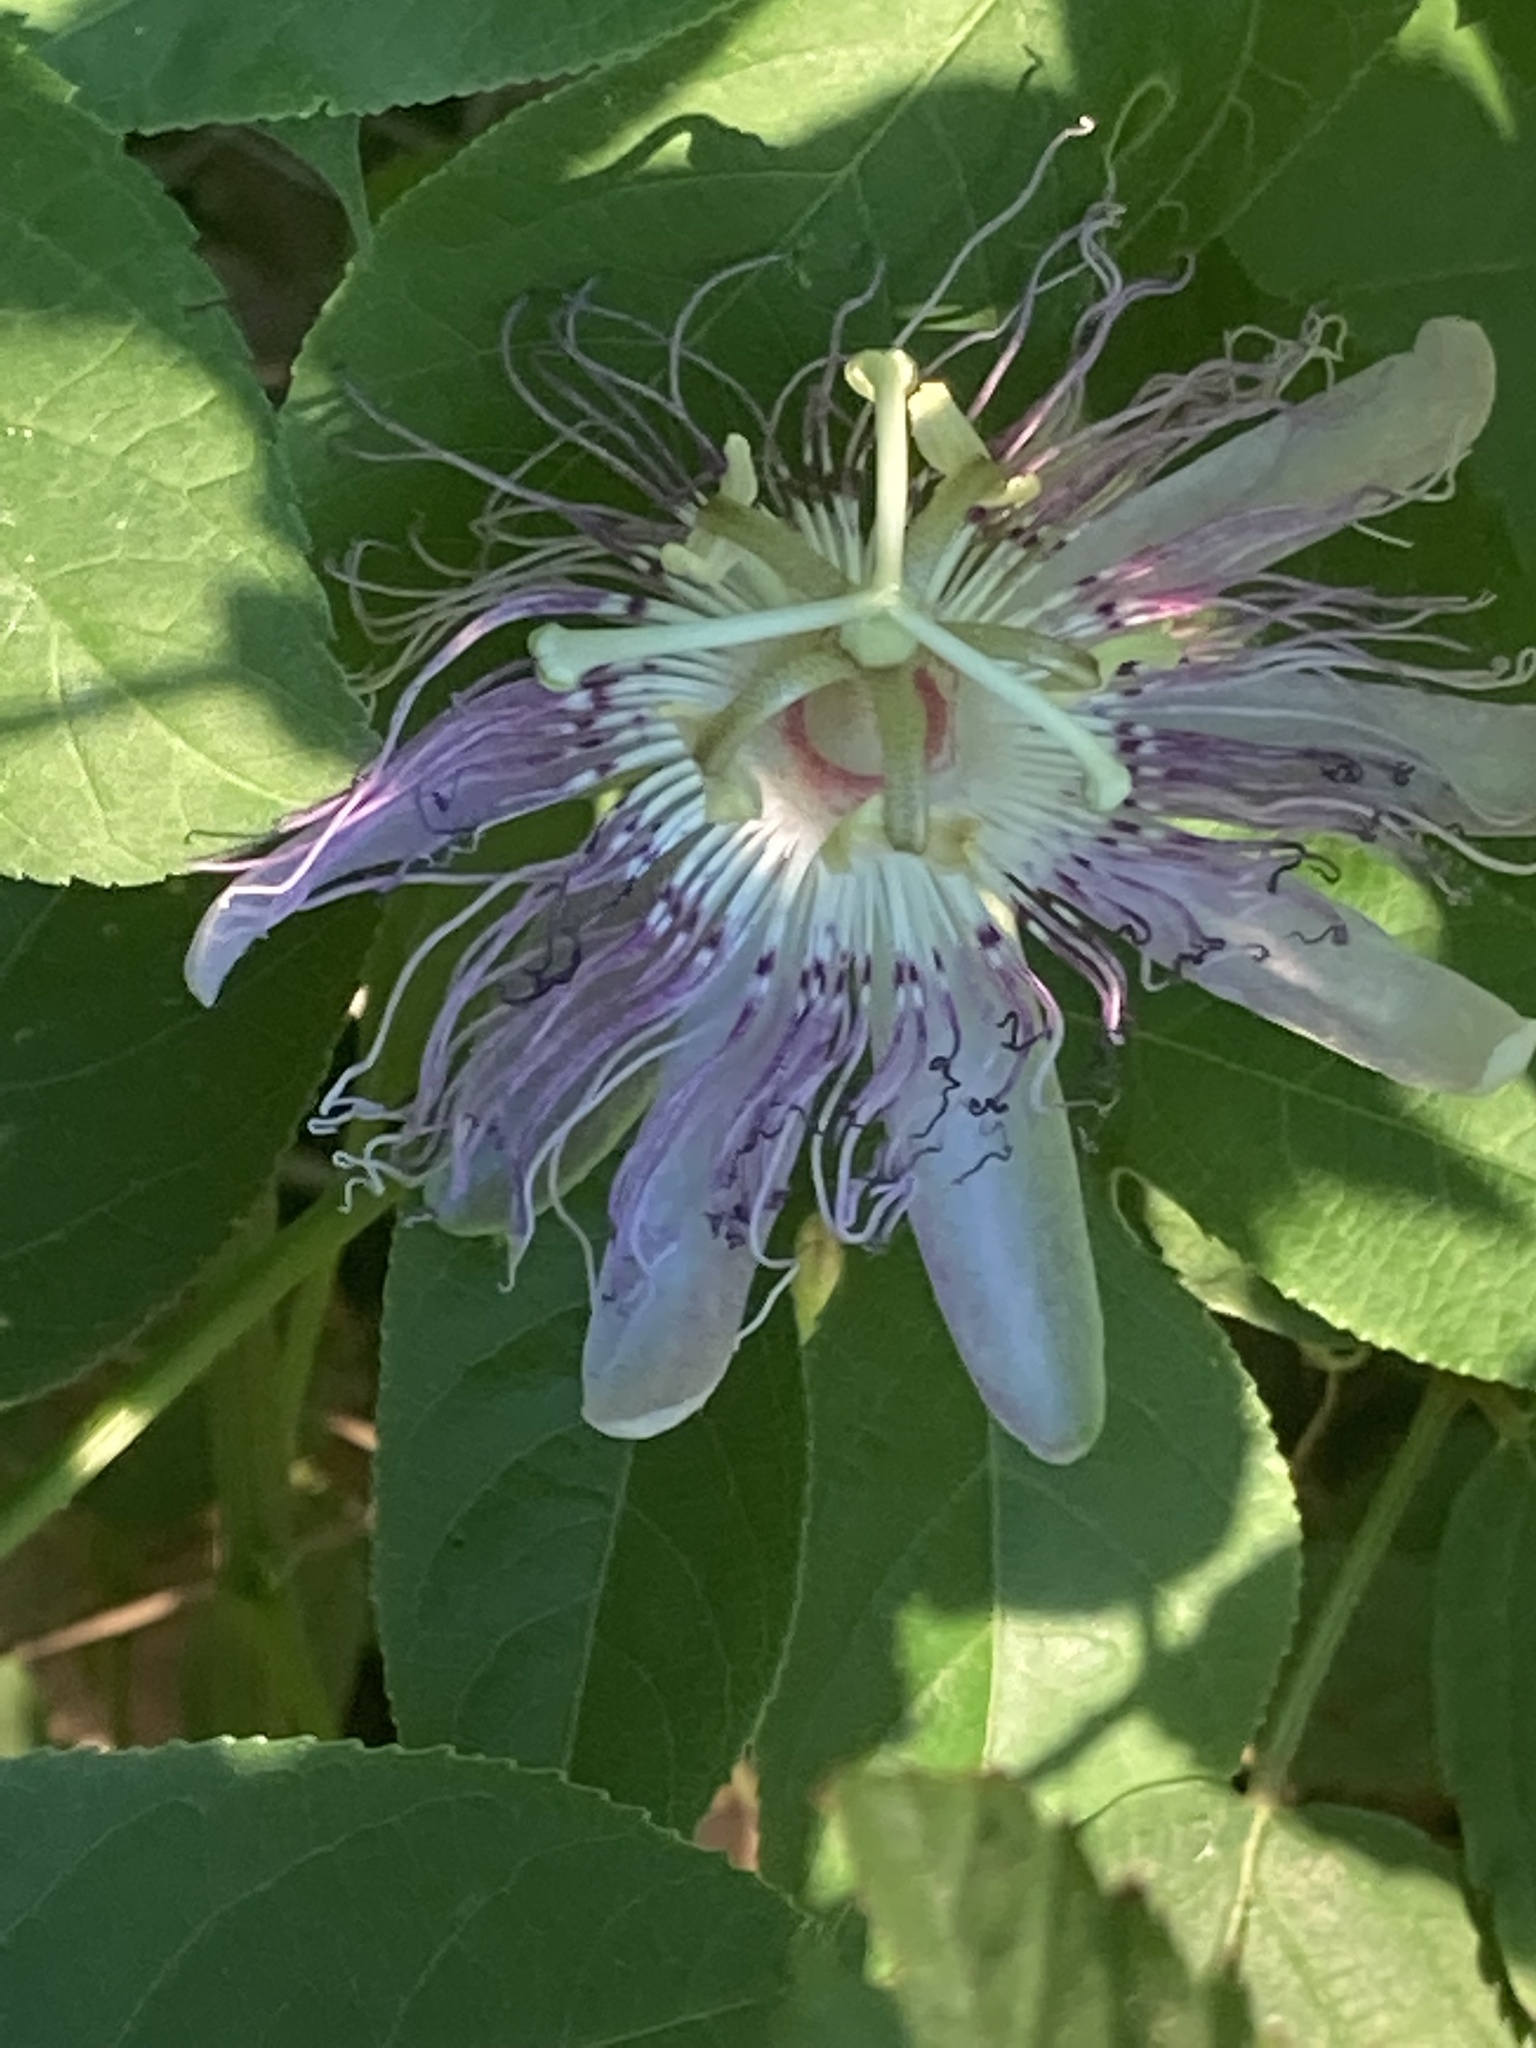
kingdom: Plantae
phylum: Tracheophyta
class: Magnoliopsida
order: Malpighiales
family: Passifloraceae
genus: Passiflora
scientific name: Passiflora incarnata
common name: Apricot-vine
